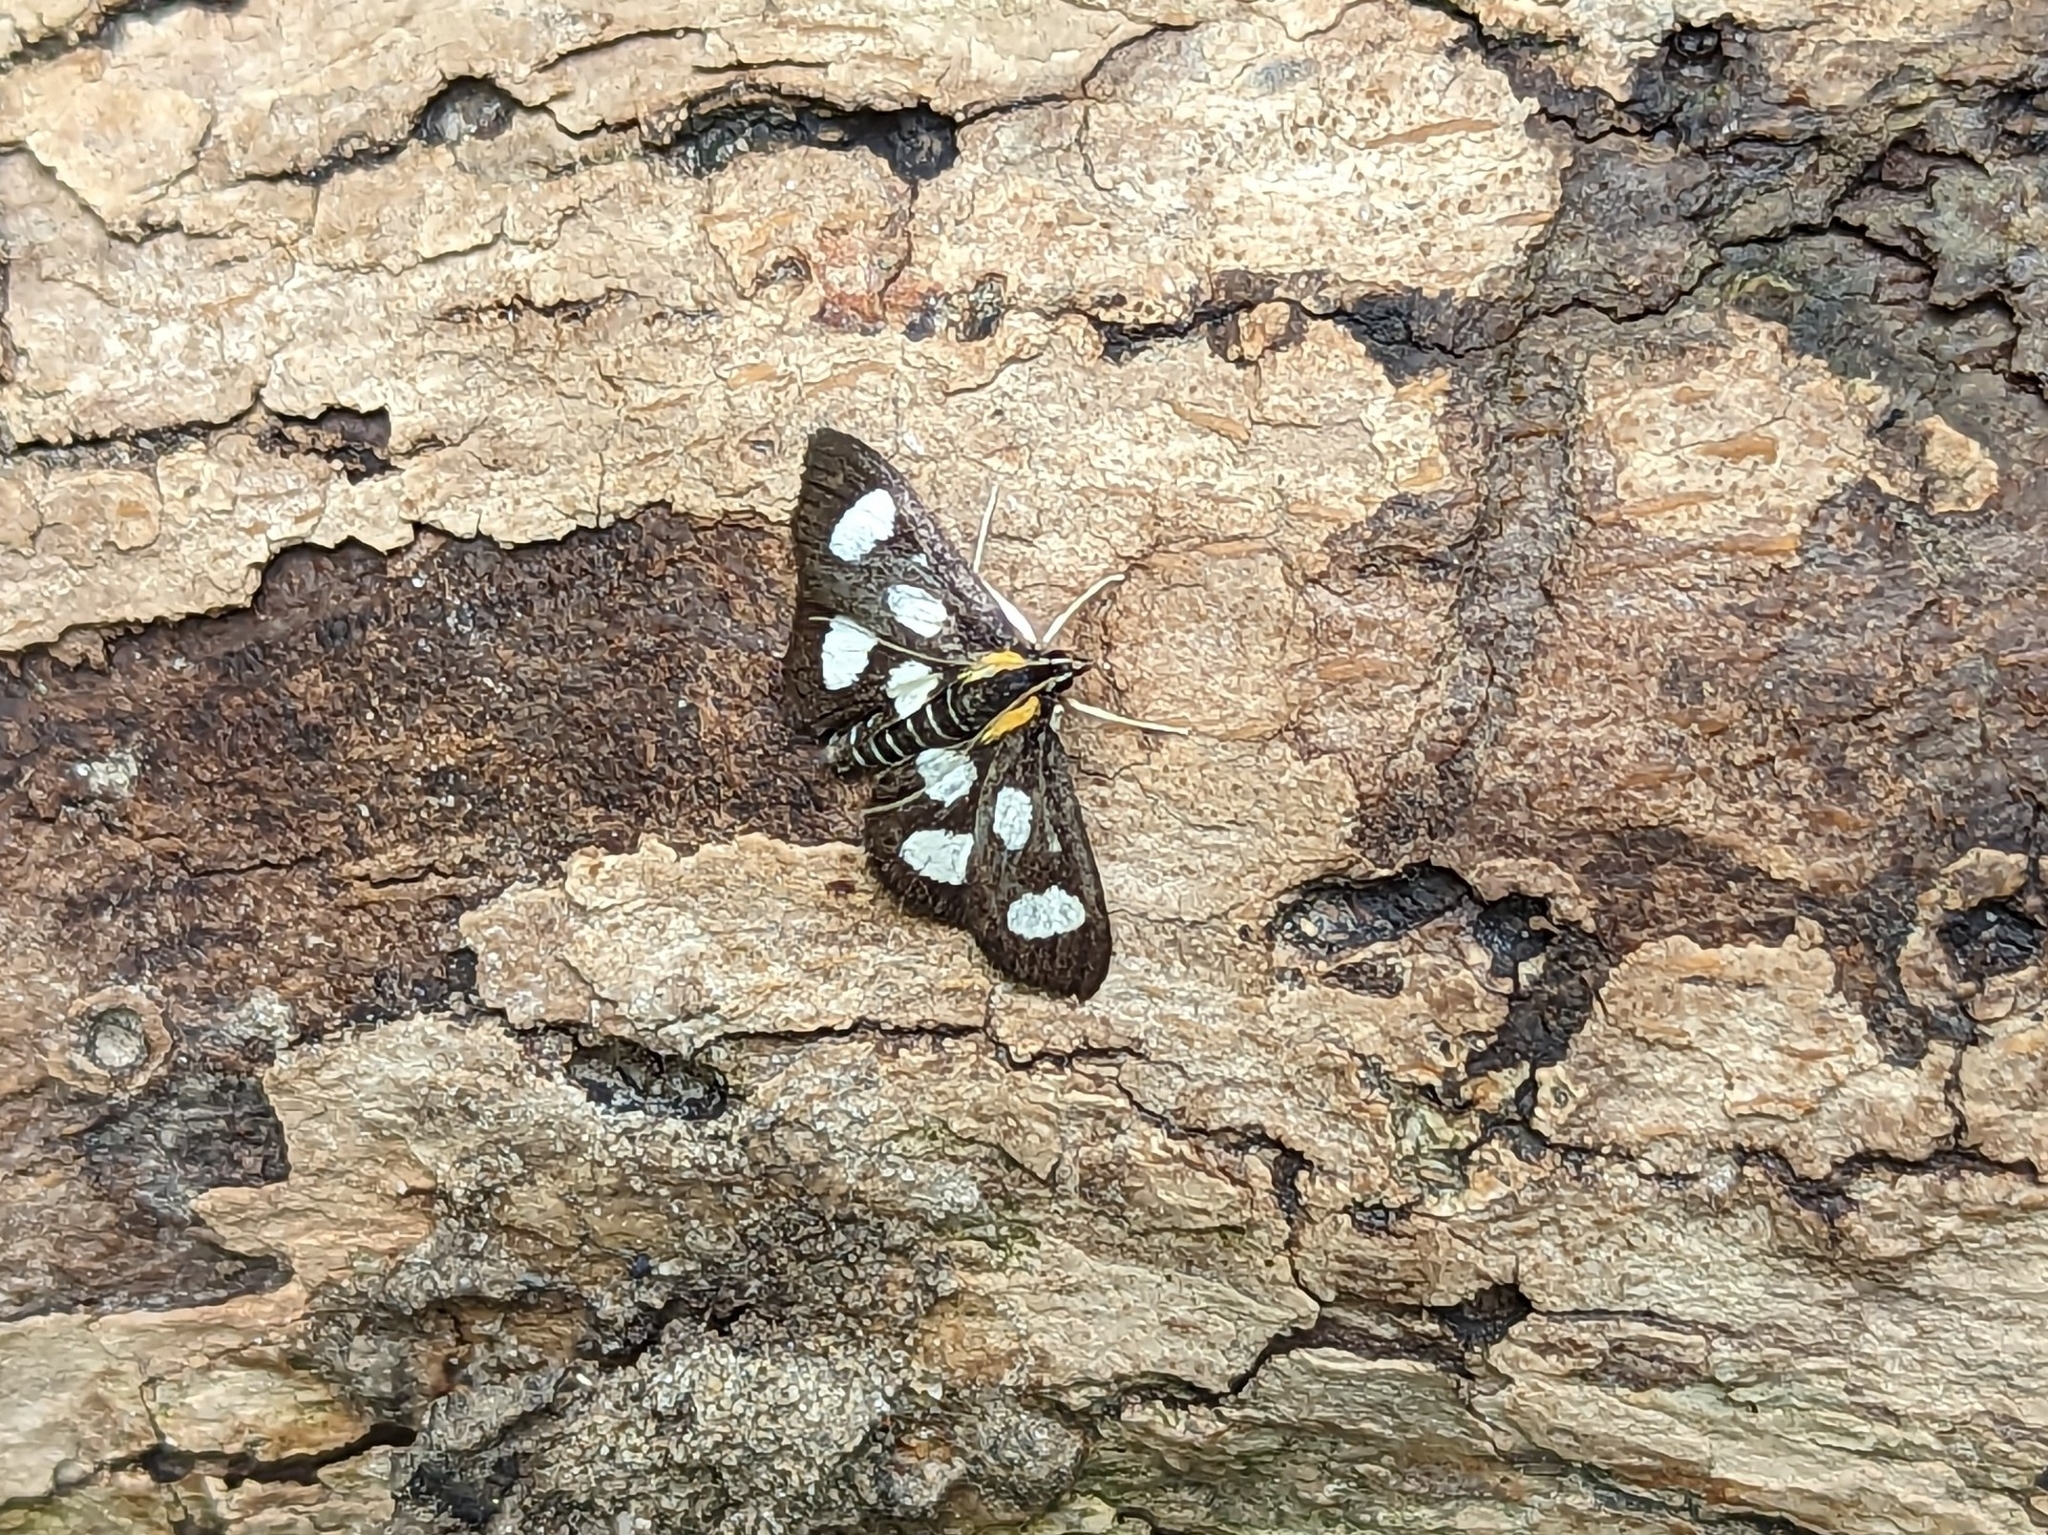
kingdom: Animalia
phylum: Arthropoda
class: Insecta
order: Lepidoptera
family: Crambidae
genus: Anania
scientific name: Anania funebris
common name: White-spotted sable moth
